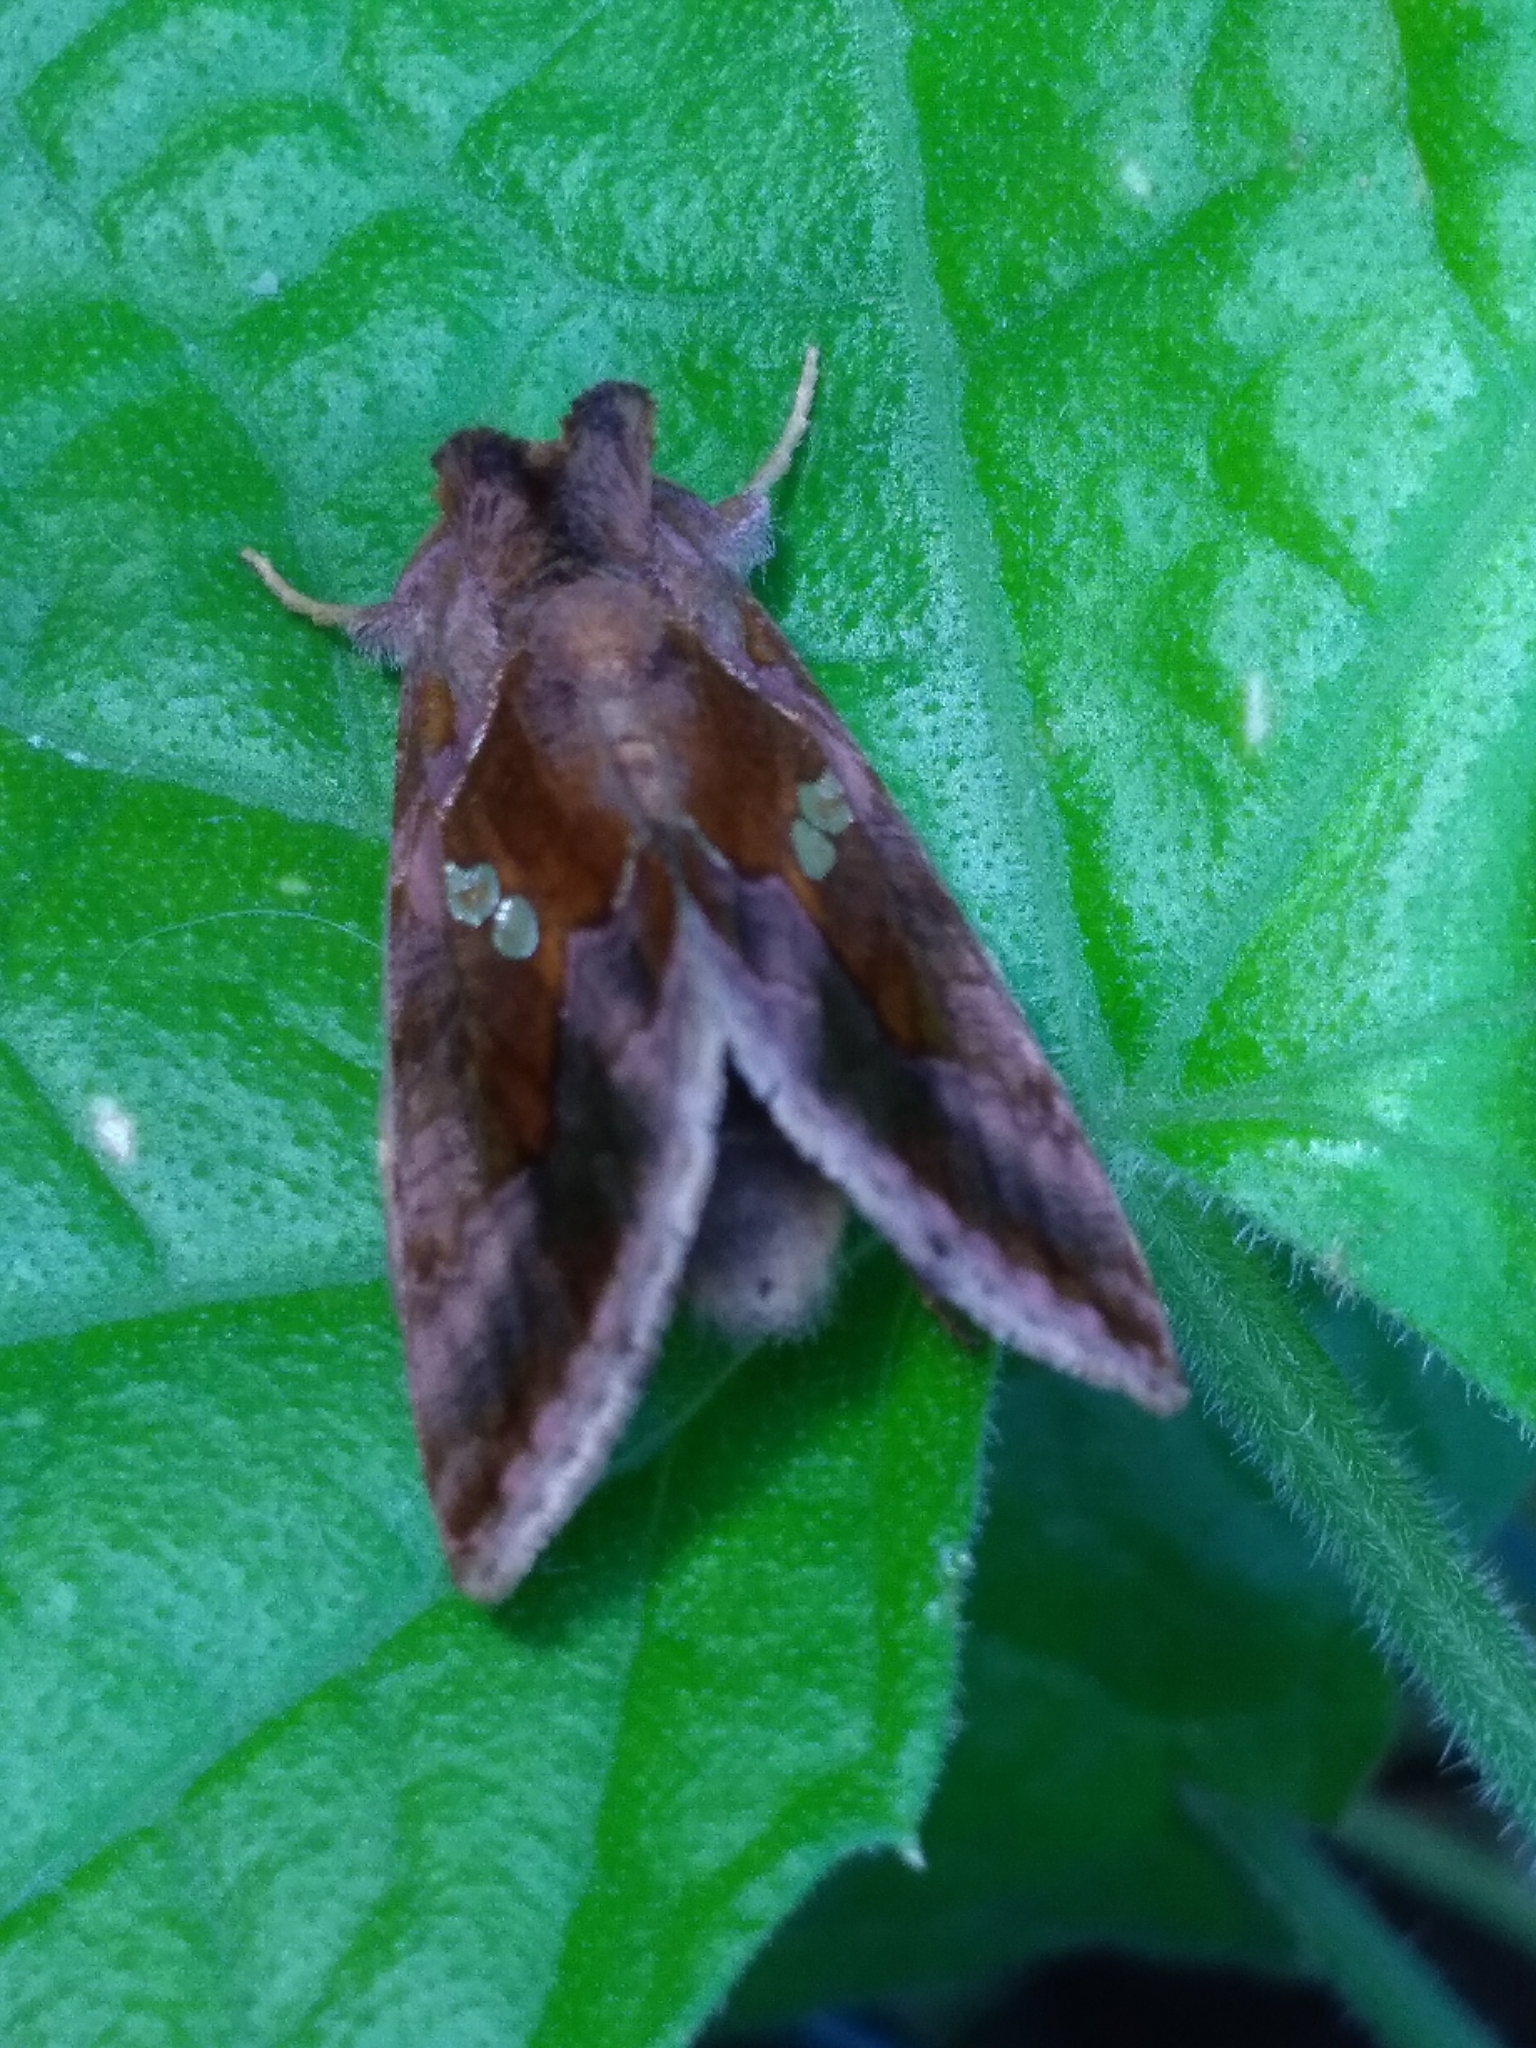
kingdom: Animalia
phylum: Arthropoda
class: Insecta
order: Lepidoptera
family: Noctuidae
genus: Chrysodeixis
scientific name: Chrysodeixis chalcites
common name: Golden twin-spot
